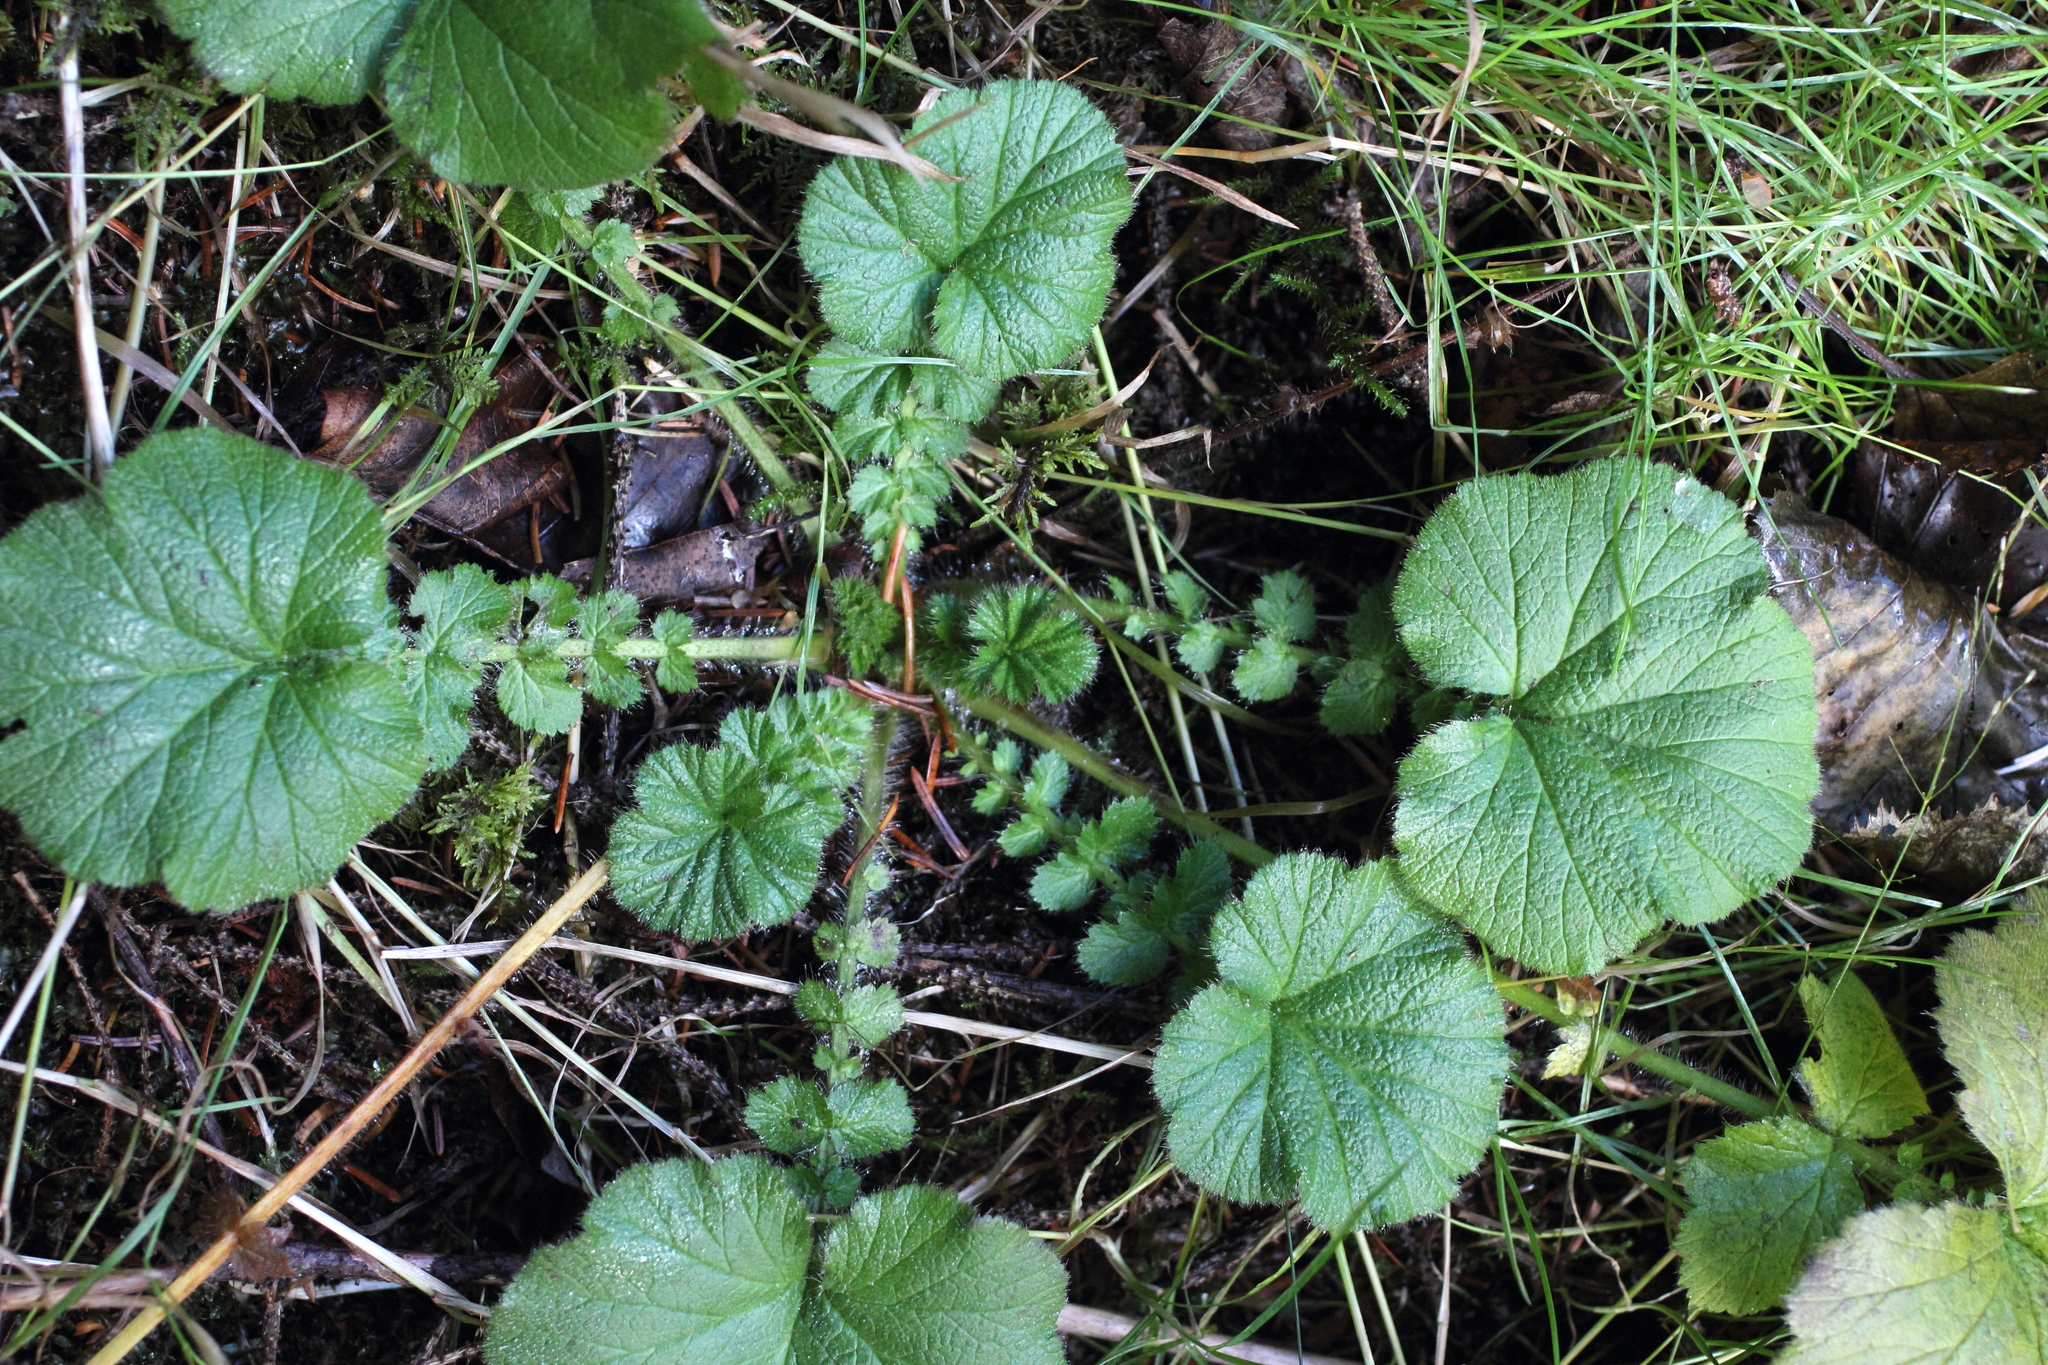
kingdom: Plantae
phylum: Tracheophyta
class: Magnoliopsida
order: Rosales
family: Rosaceae
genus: Geum
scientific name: Geum macrophyllum
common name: Large-leaved avens
